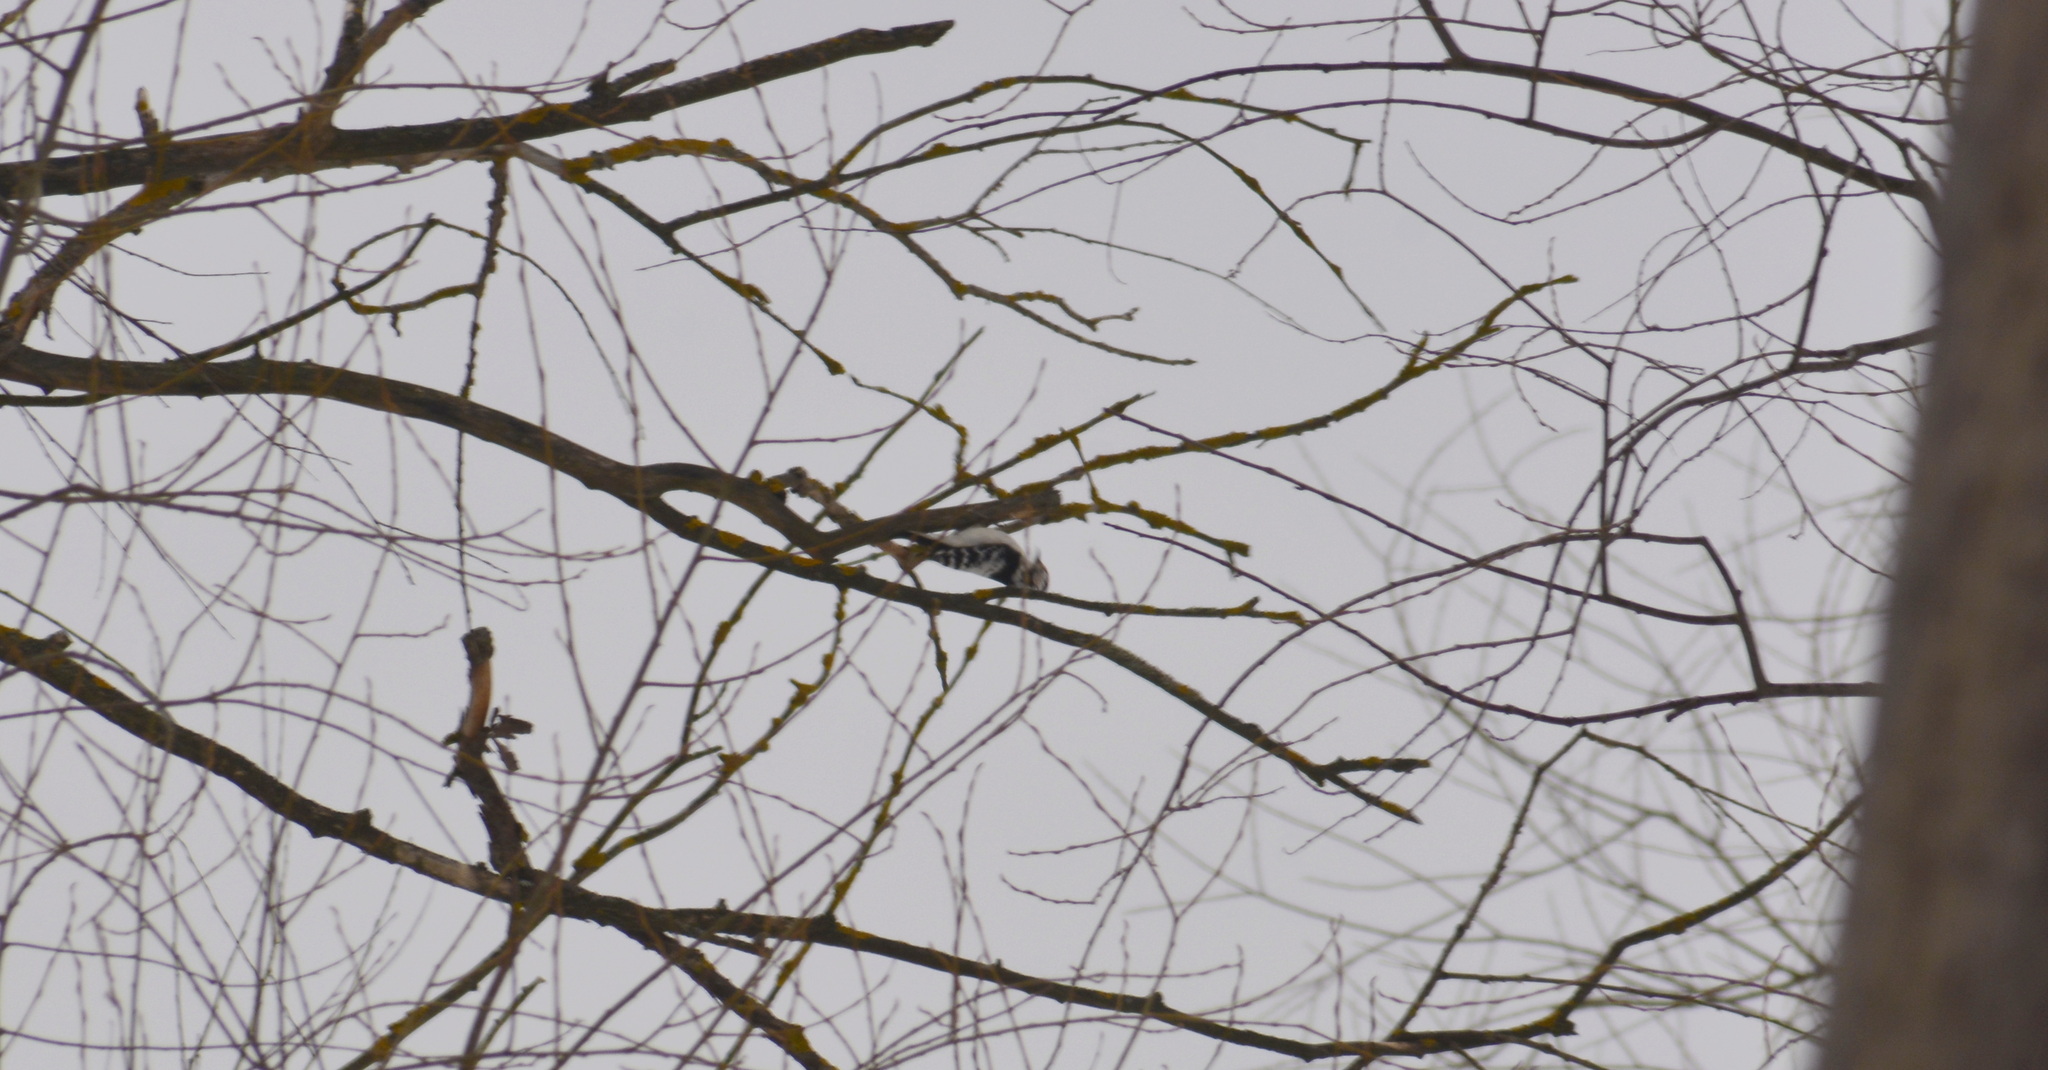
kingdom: Animalia
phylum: Chordata
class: Aves
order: Piciformes
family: Picidae
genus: Dryobates
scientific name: Dryobates minor
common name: Lesser spotted woodpecker
